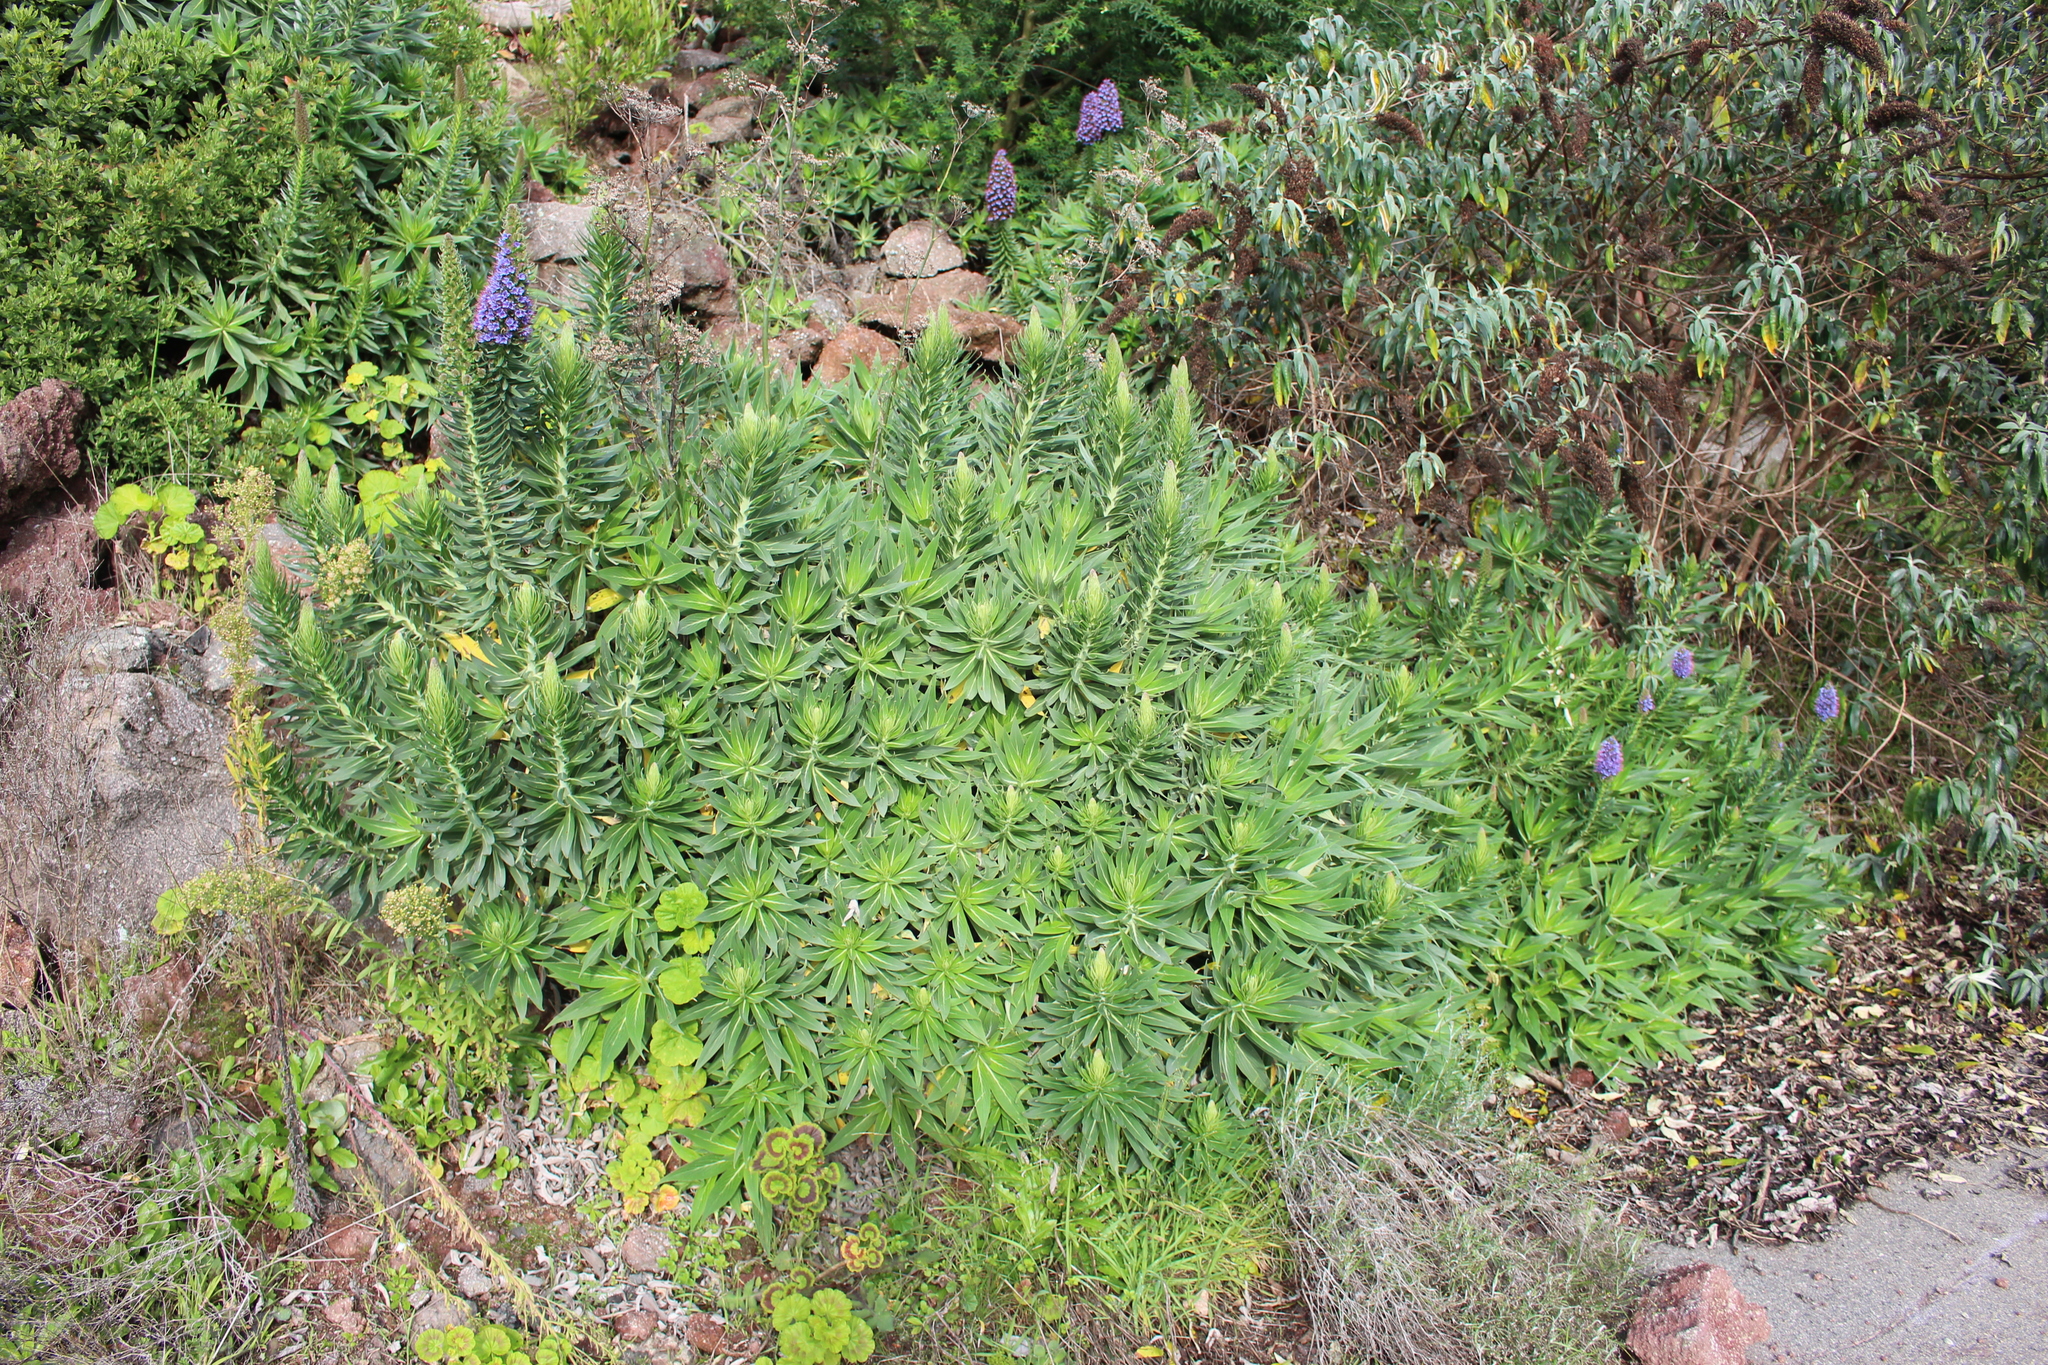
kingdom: Plantae
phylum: Tracheophyta
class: Magnoliopsida
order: Boraginales
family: Boraginaceae
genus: Echium
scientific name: Echium candicans
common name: Pride of madeira
